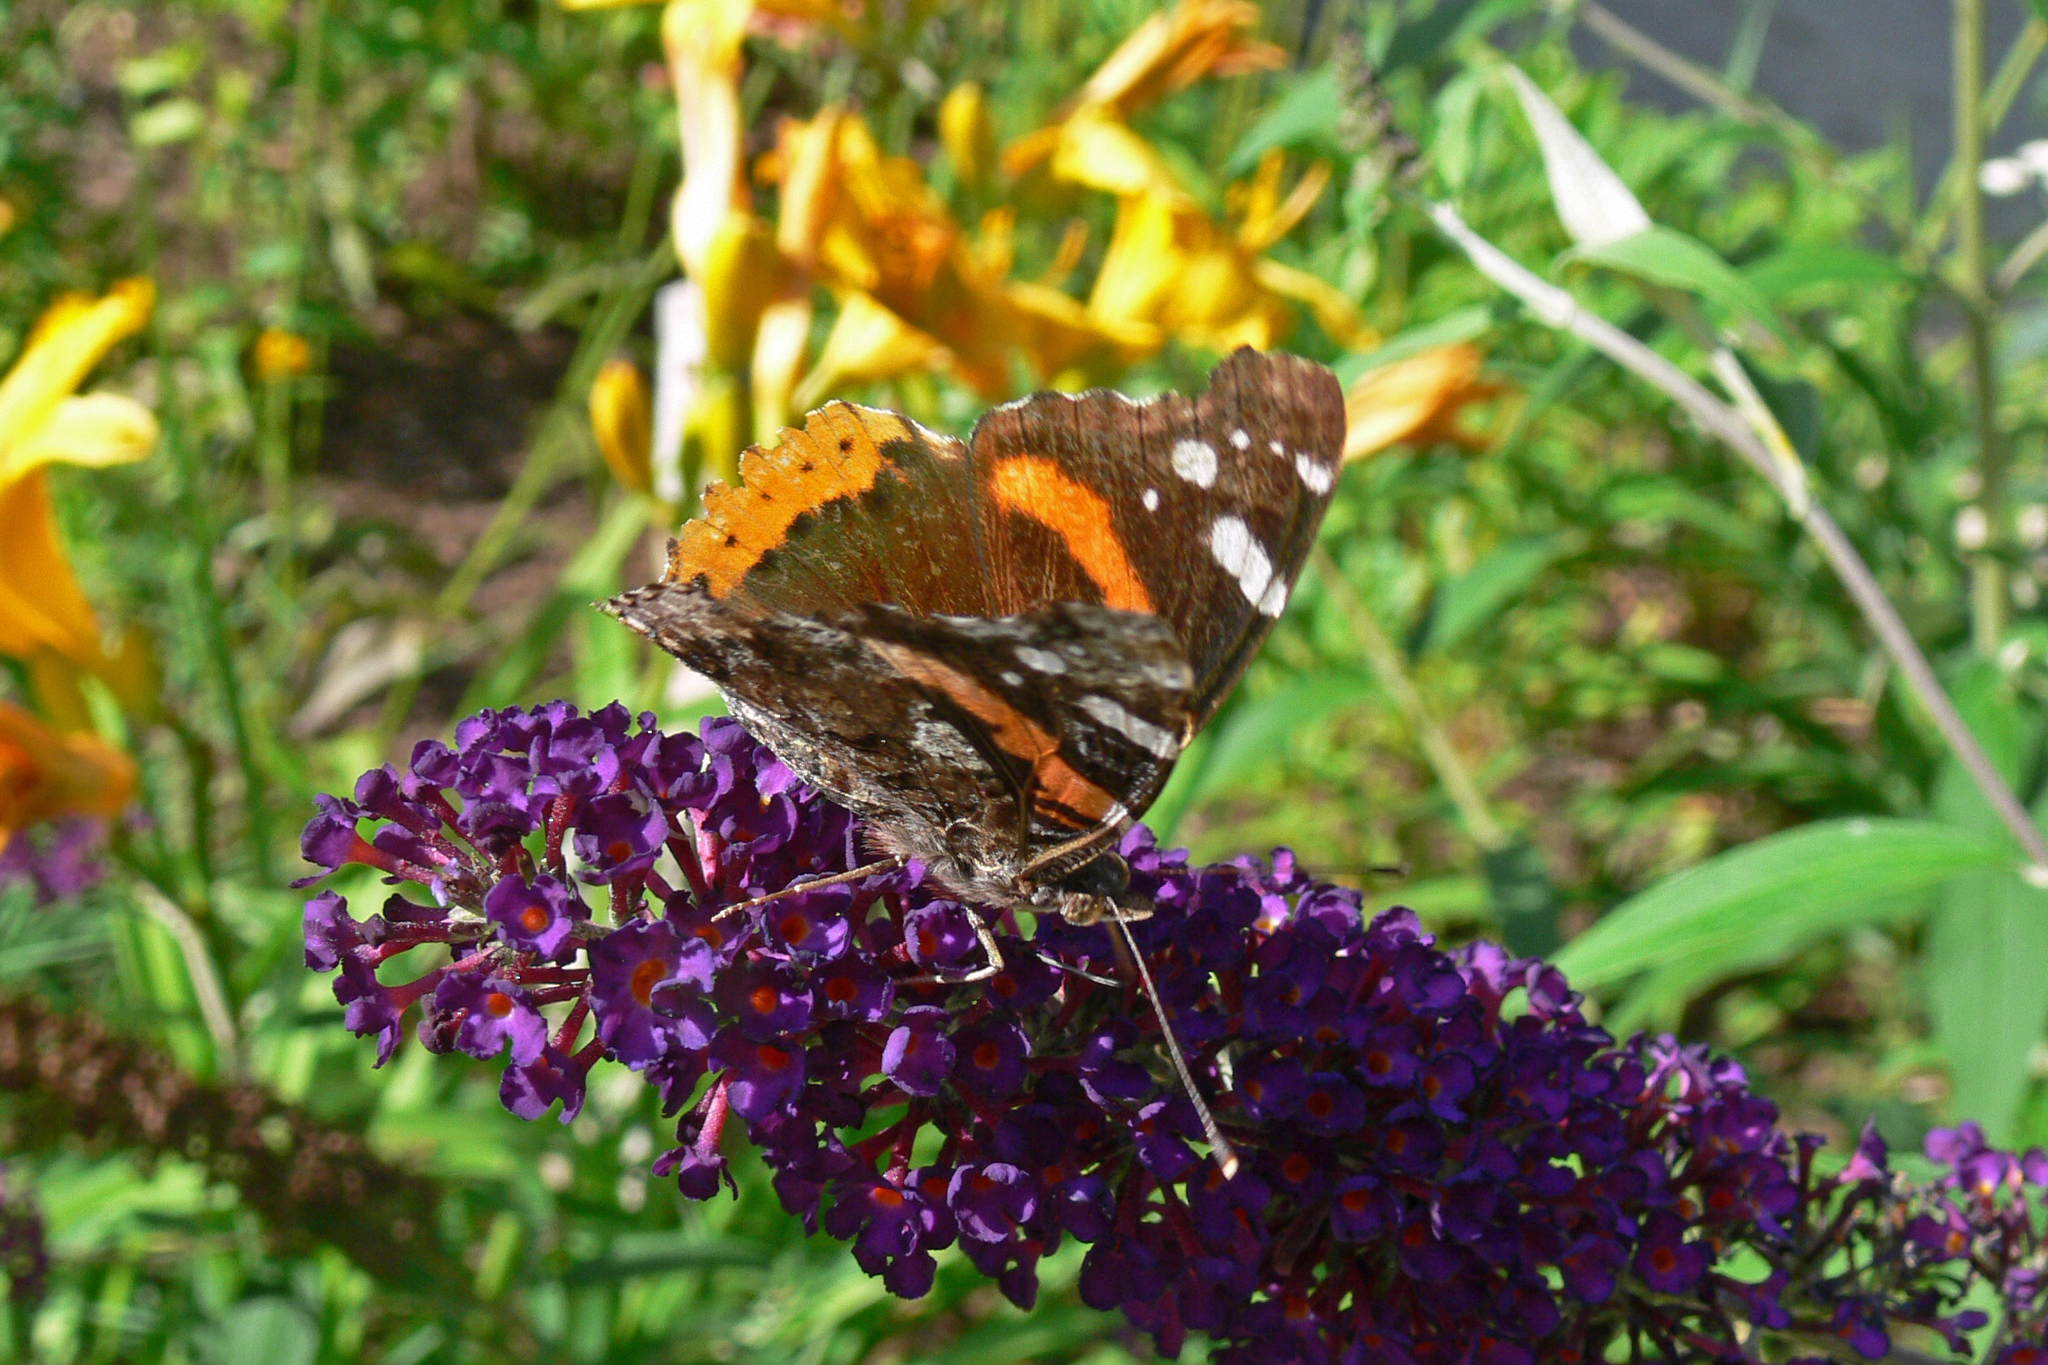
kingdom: Animalia
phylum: Arthropoda
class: Insecta
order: Lepidoptera
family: Nymphalidae
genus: Vanessa
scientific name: Vanessa atalanta
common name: Red admiral
